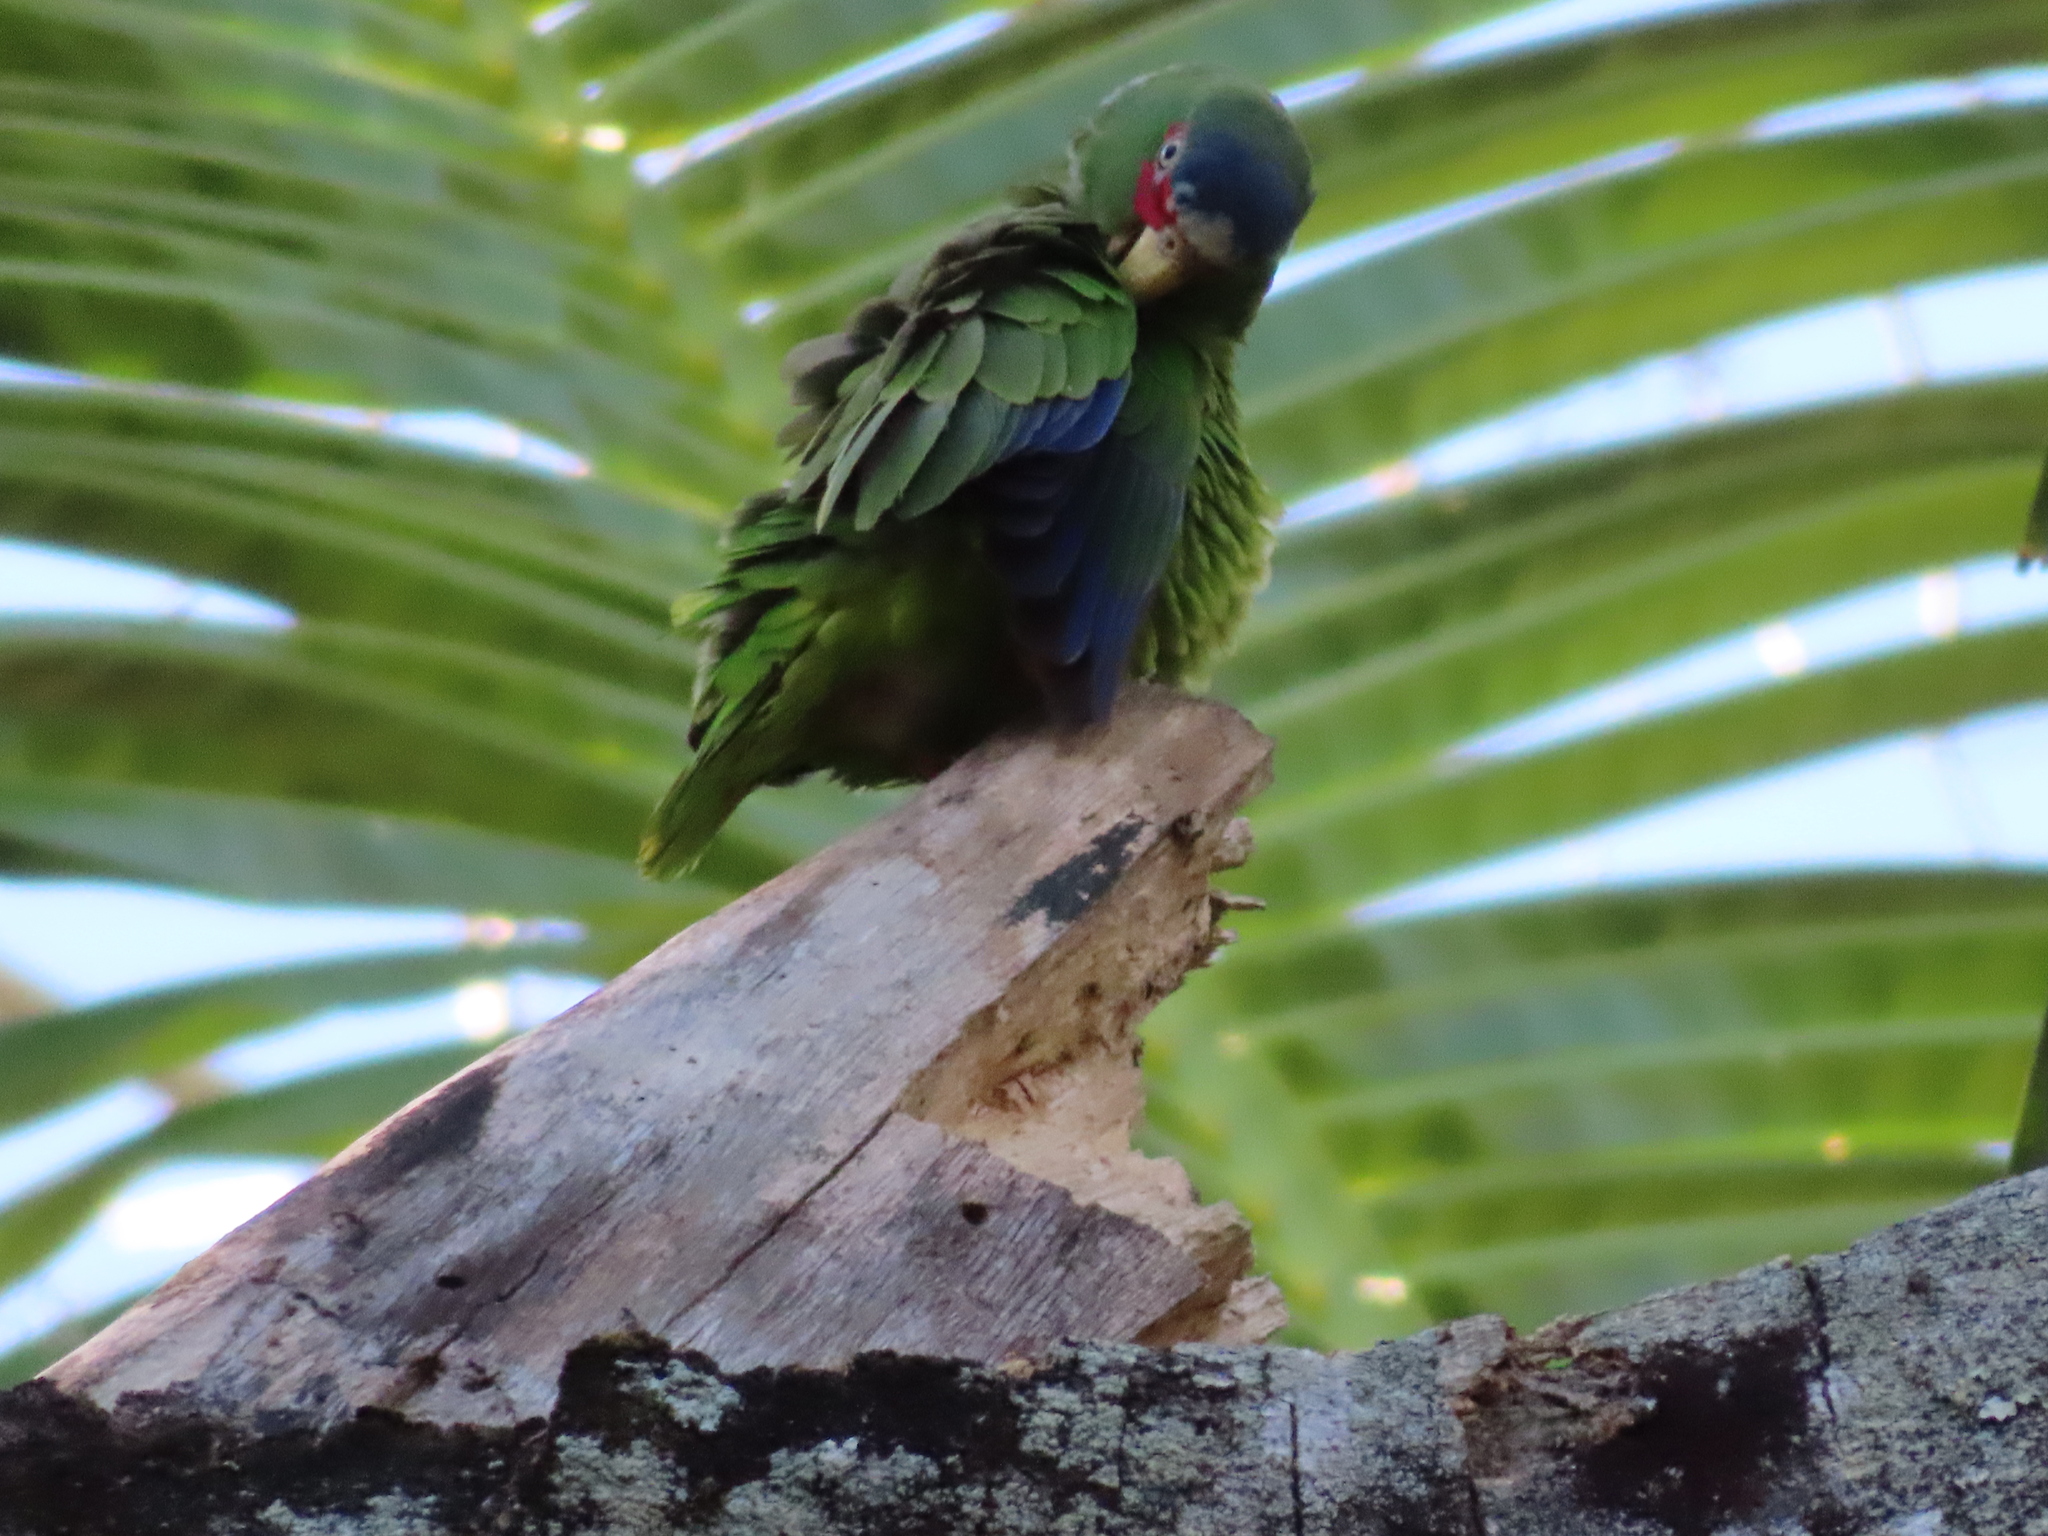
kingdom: Animalia
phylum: Chordata
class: Aves
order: Psittaciformes
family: Psittacidae
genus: Amazona
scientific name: Amazona albifrons
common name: White-fronted amazon
